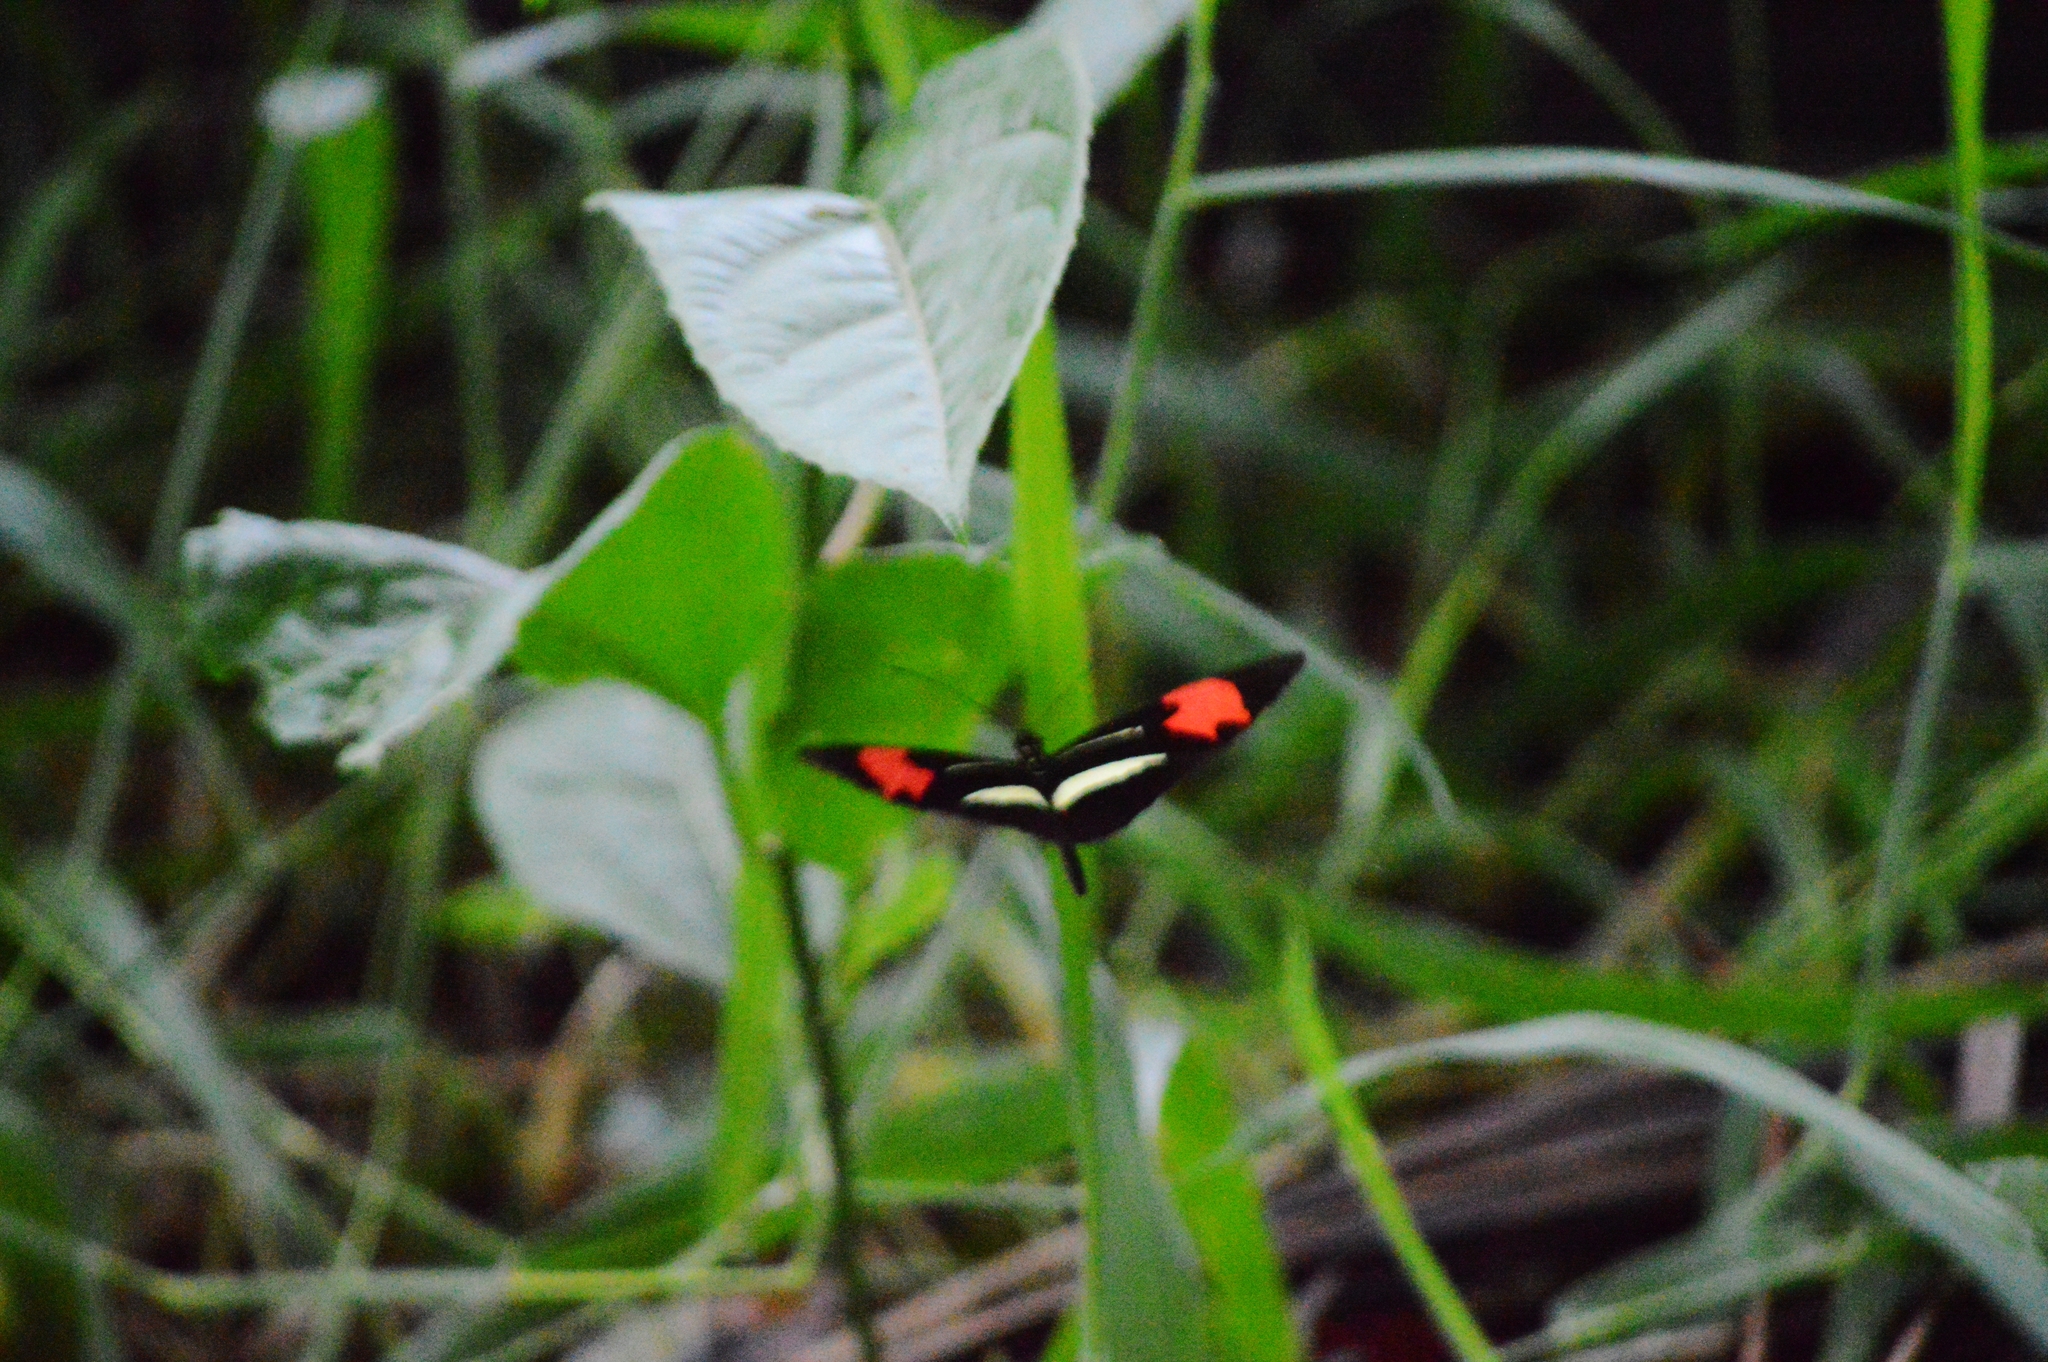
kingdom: Animalia
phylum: Arthropoda
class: Insecta
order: Lepidoptera
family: Nymphalidae
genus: Heliconius
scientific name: Heliconius erato
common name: Common patch longwing
